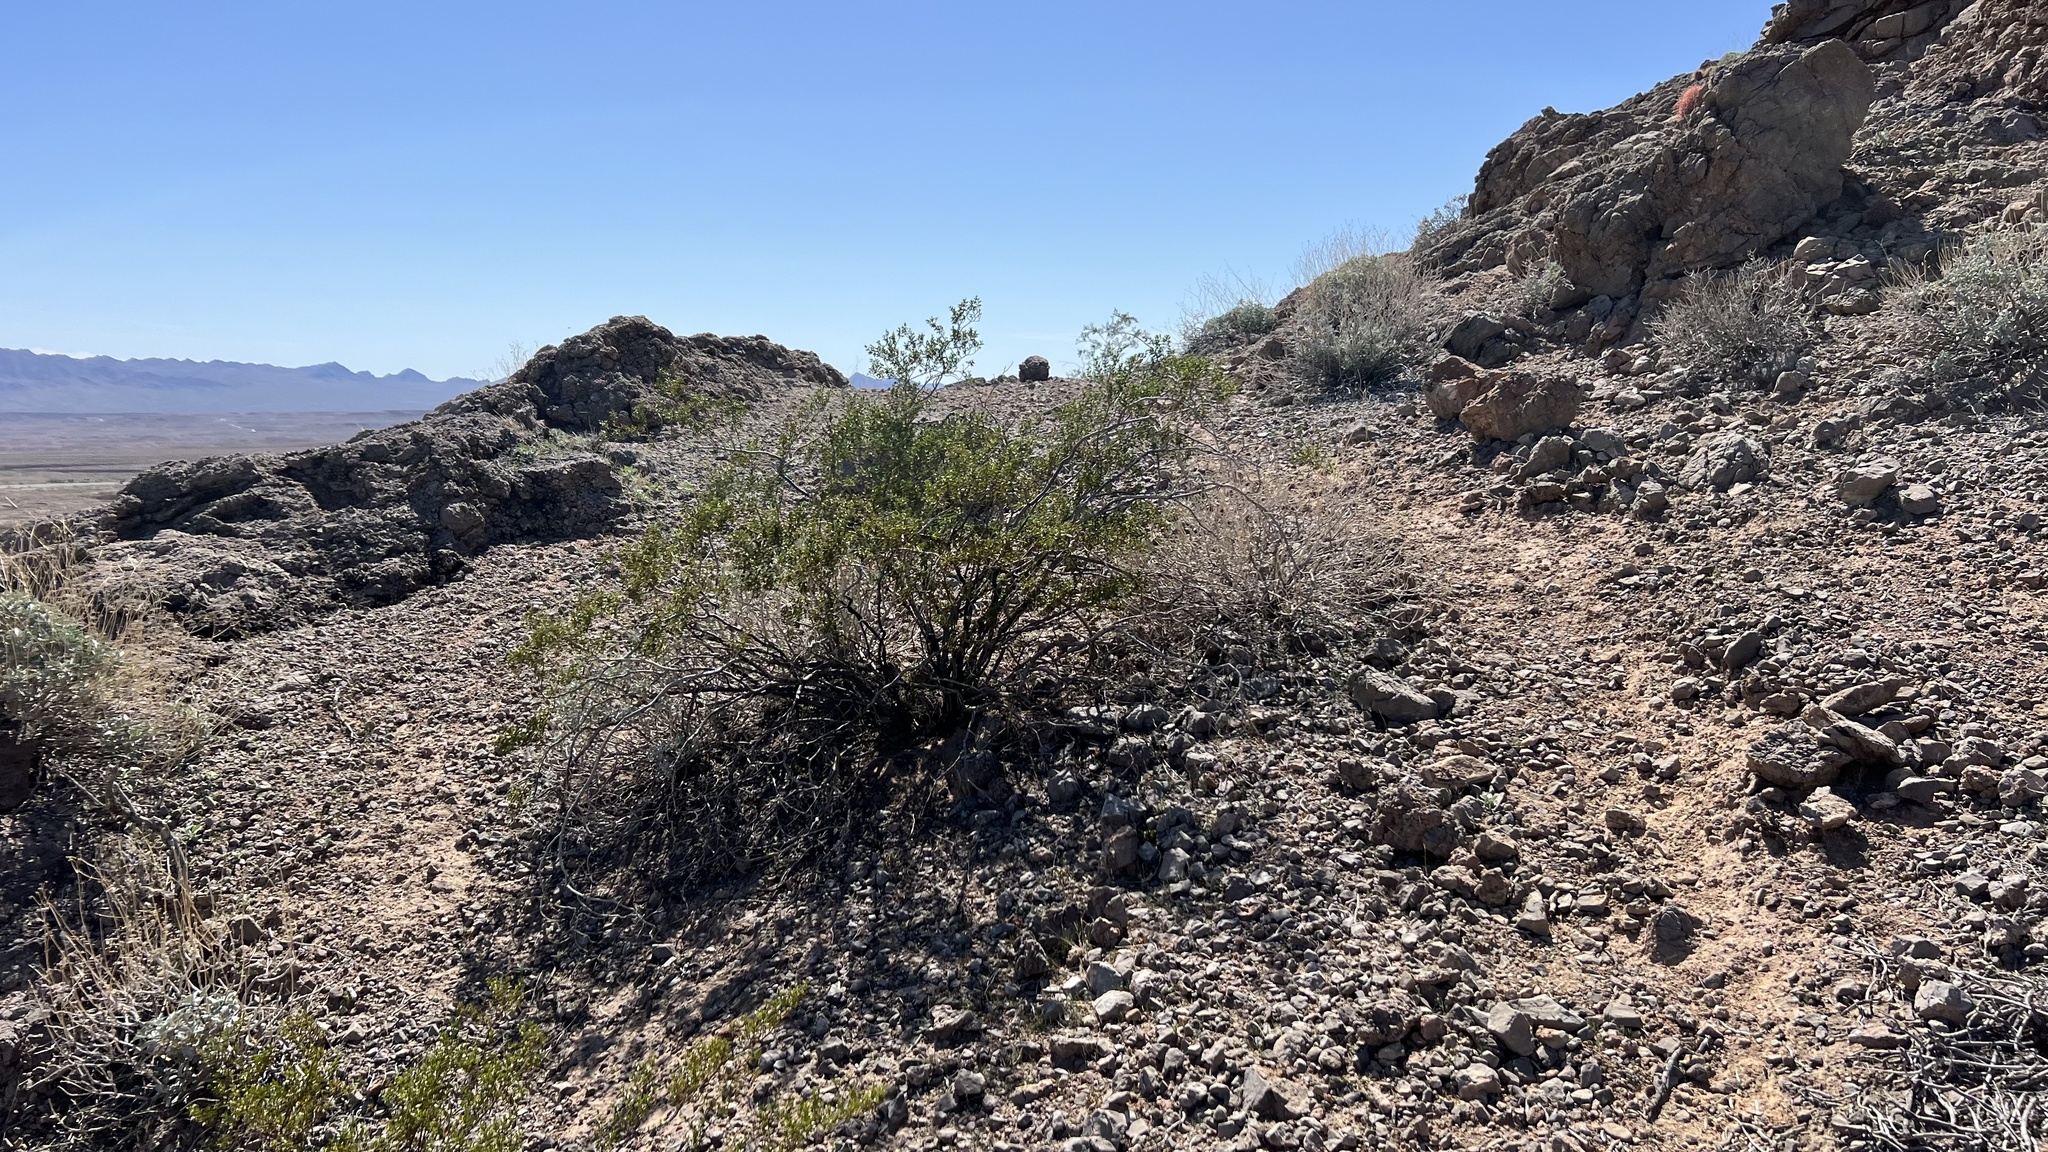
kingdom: Plantae
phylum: Tracheophyta
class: Magnoliopsida
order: Zygophyllales
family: Zygophyllaceae
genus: Larrea
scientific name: Larrea tridentata
